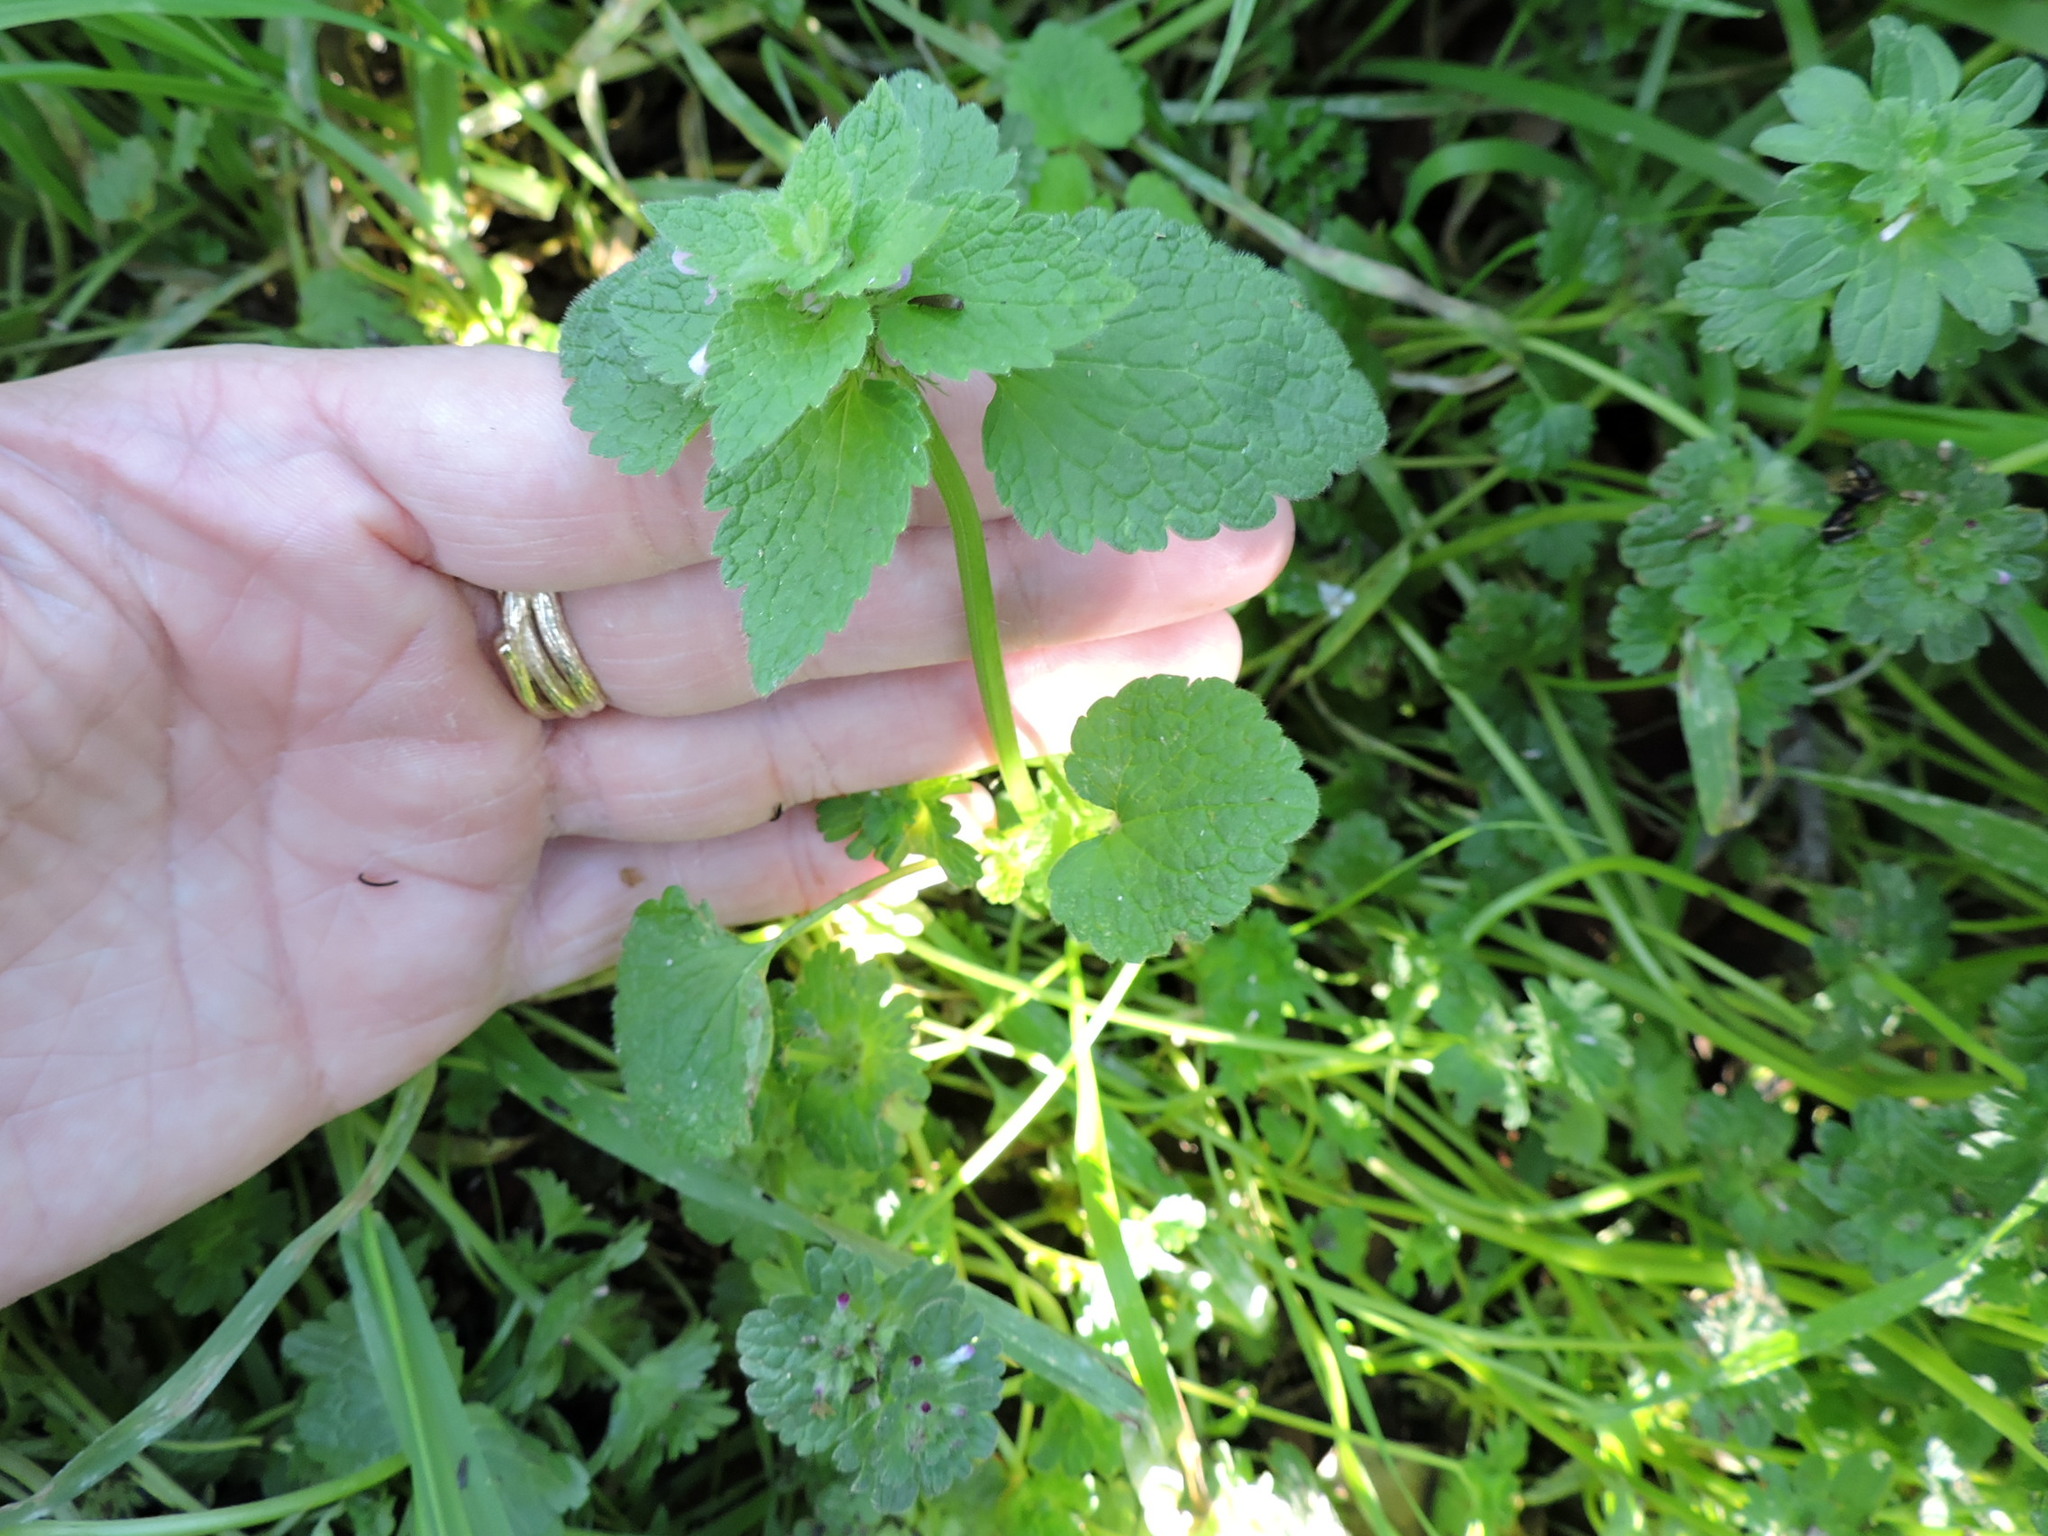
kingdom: Plantae
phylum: Tracheophyta
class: Magnoliopsida
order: Lamiales
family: Lamiaceae
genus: Lamium
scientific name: Lamium purpureum
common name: Red dead-nettle
